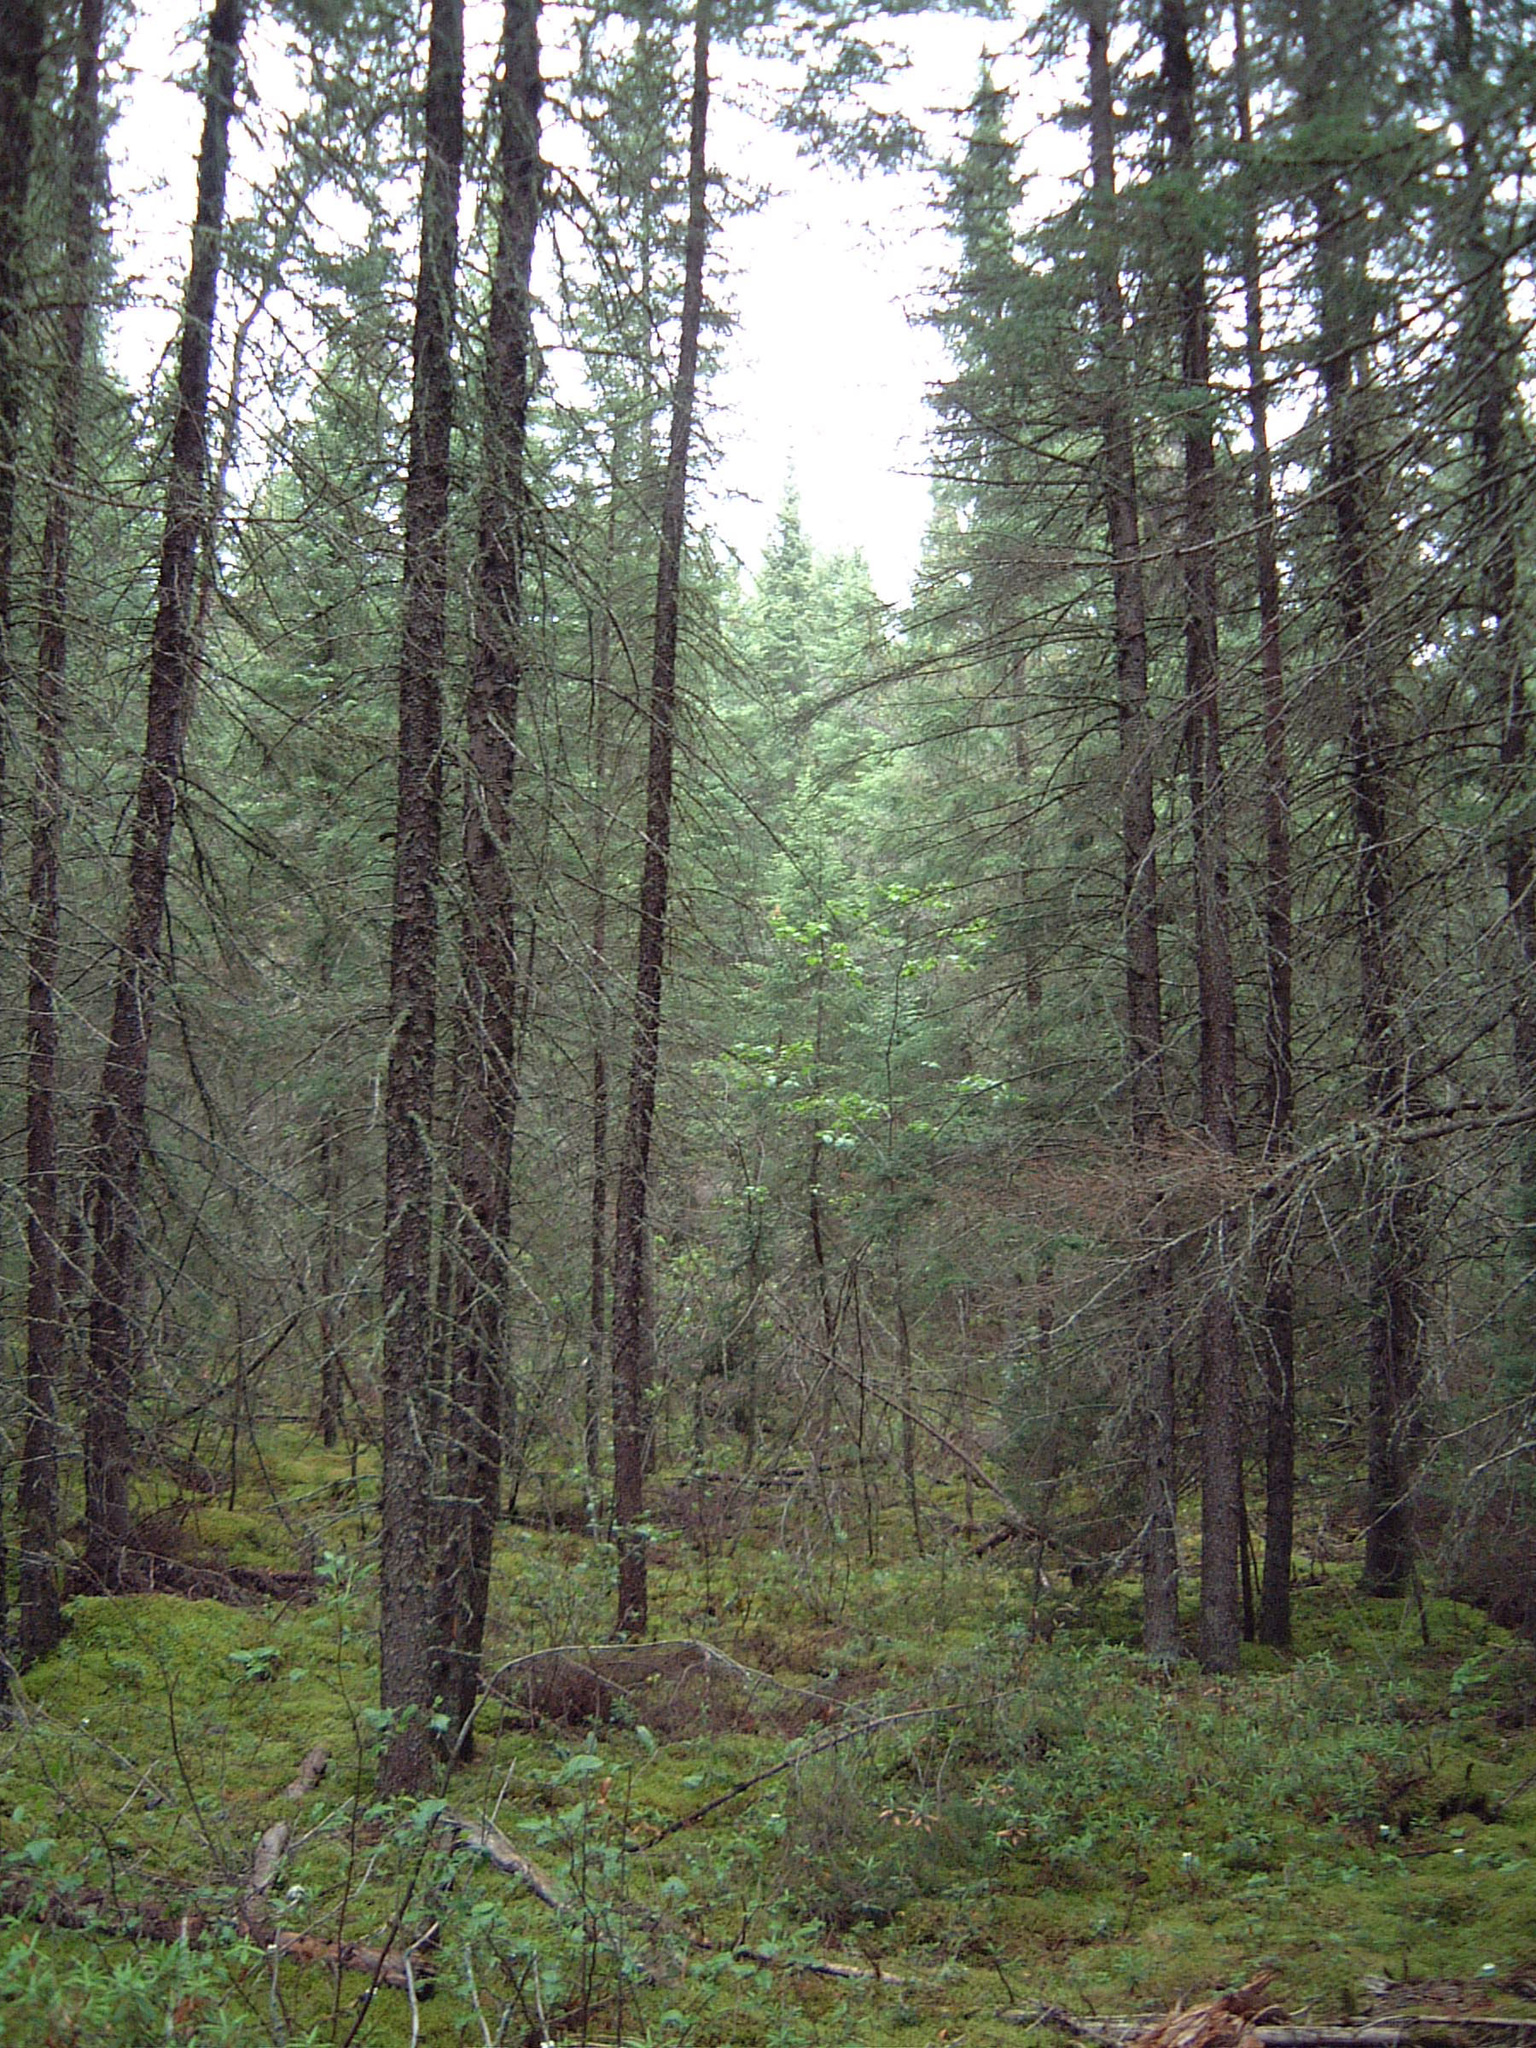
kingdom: Plantae
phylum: Tracheophyta
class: Pinopsida
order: Pinales
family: Pinaceae
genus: Picea
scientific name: Picea mariana
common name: Black spruce
